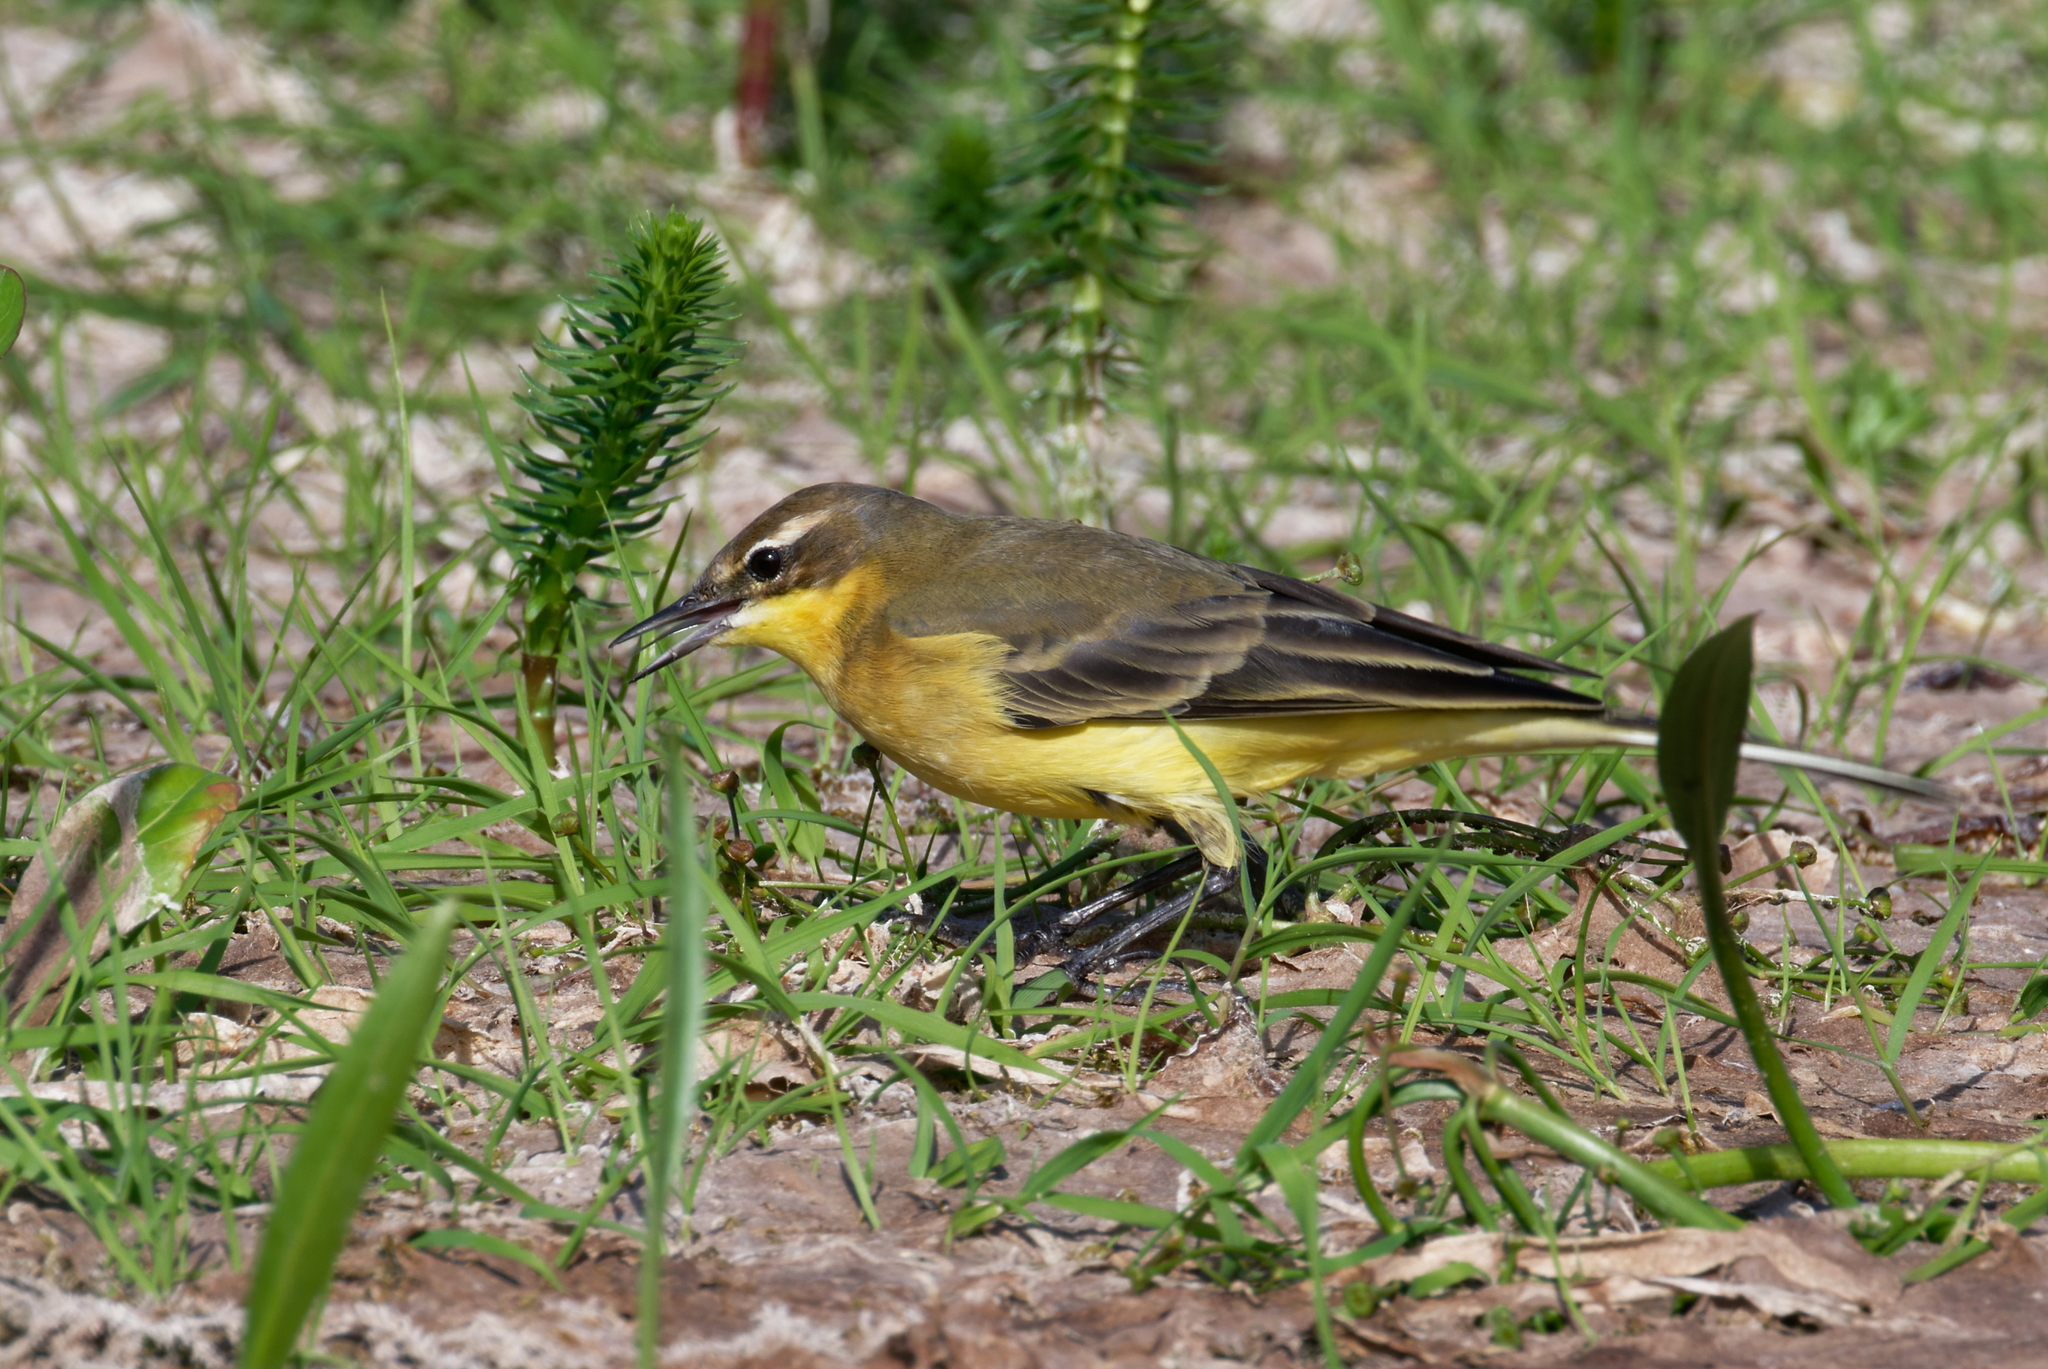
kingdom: Animalia
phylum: Chordata
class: Aves
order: Passeriformes
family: Motacillidae
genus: Motacilla
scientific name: Motacilla flava
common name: Western yellow wagtail
